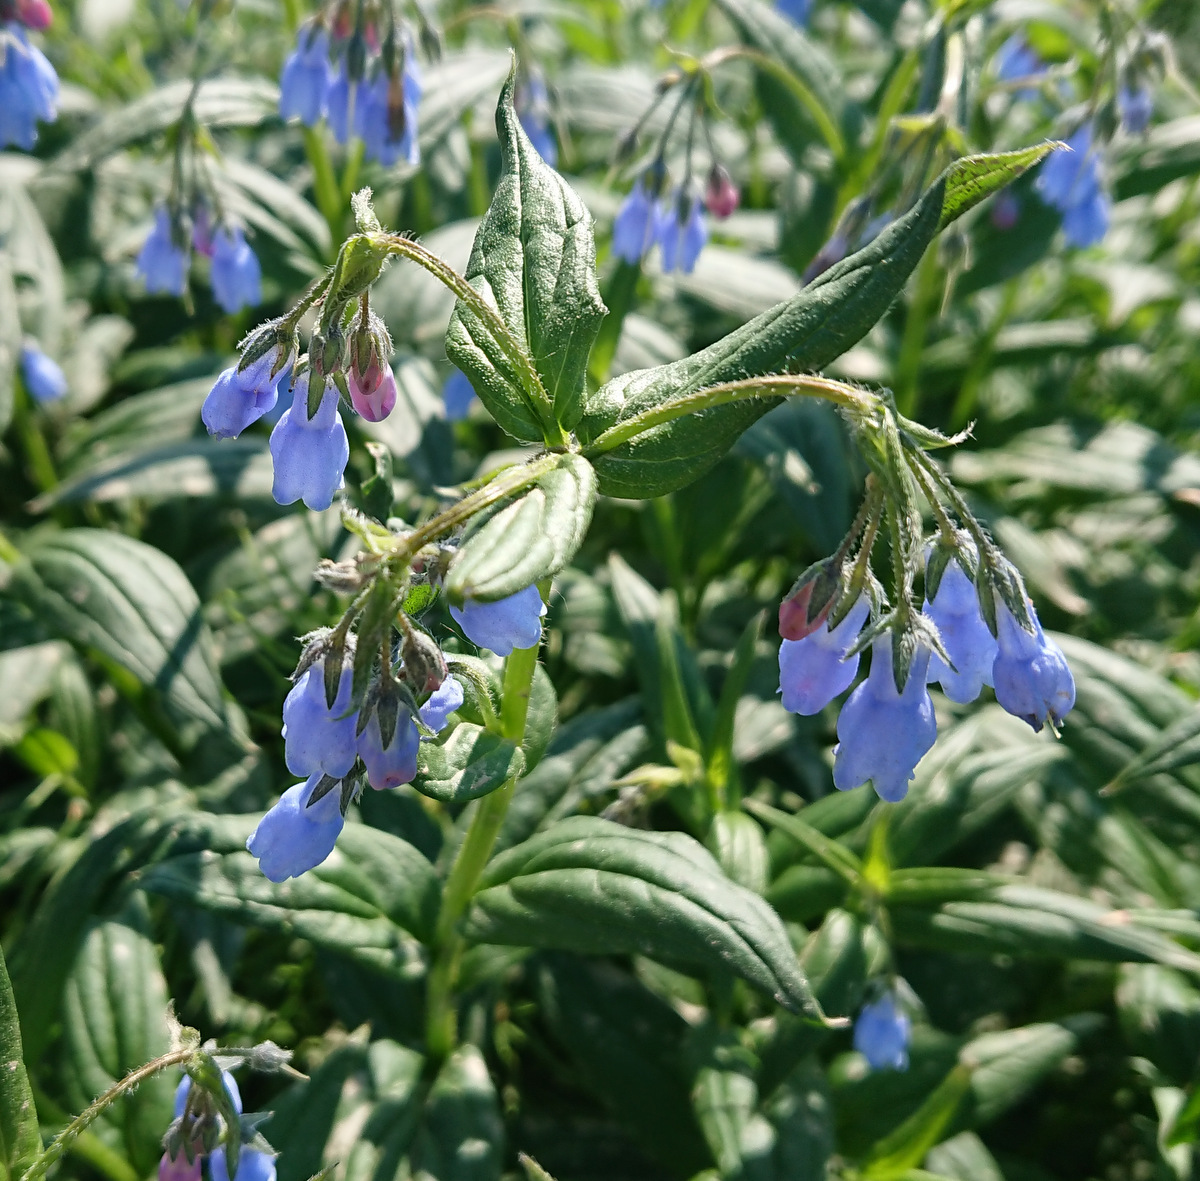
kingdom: Plantae
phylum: Tracheophyta
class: Magnoliopsida
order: Boraginales
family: Boraginaceae
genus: Mertensia
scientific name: Mertensia paniculata
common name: Panicled bluebells
